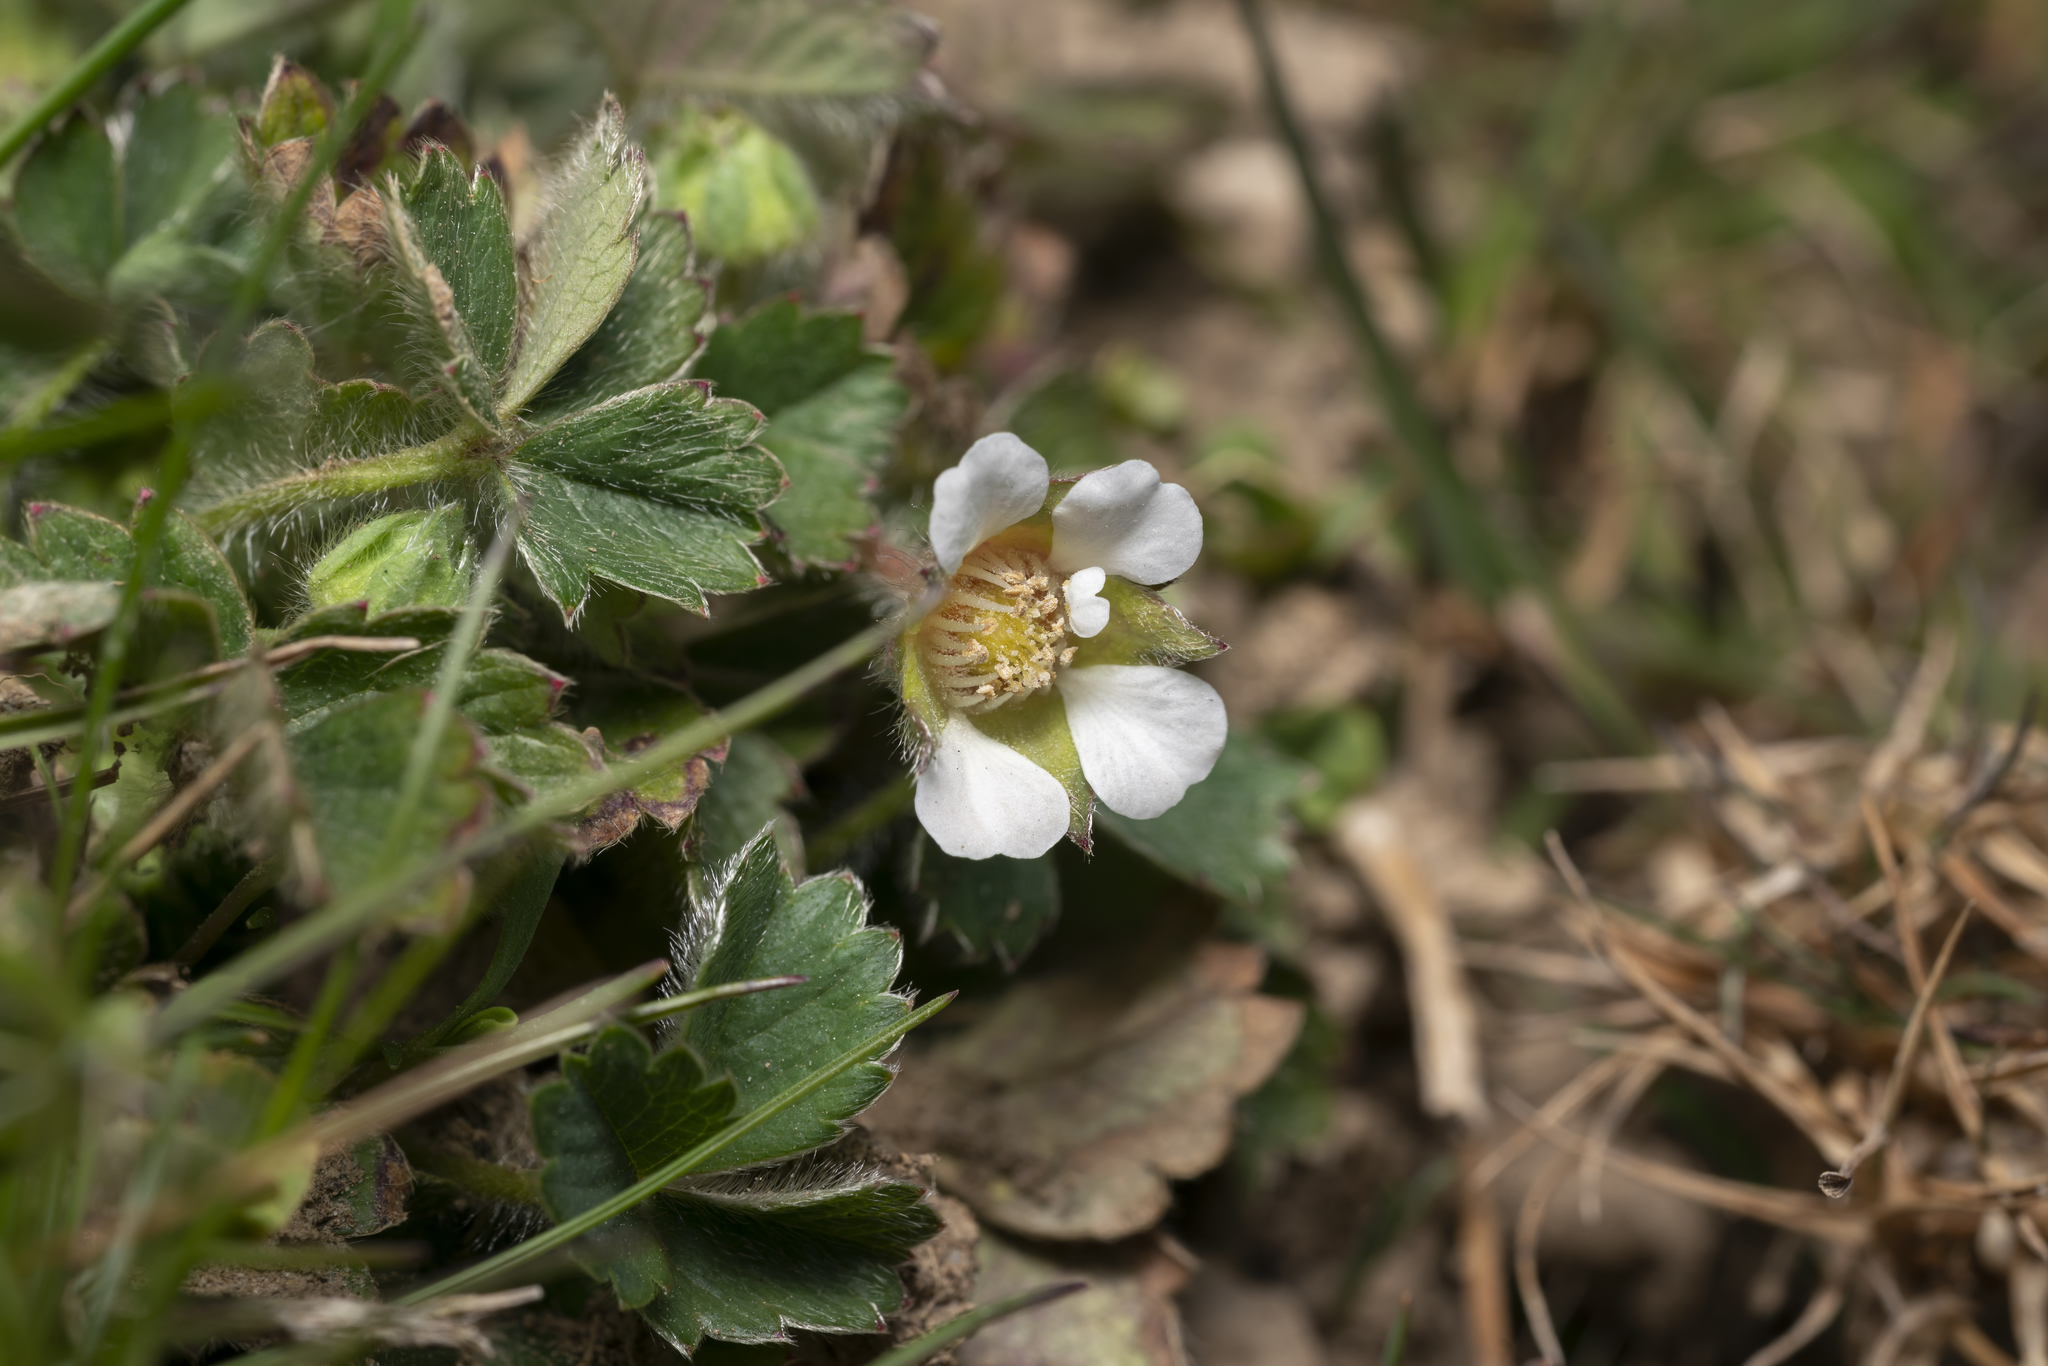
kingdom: Plantae
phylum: Tracheophyta
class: Magnoliopsida
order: Rosales
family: Rosaceae
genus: Potentilla
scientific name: Potentilla sterilis
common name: Barren strawberry
